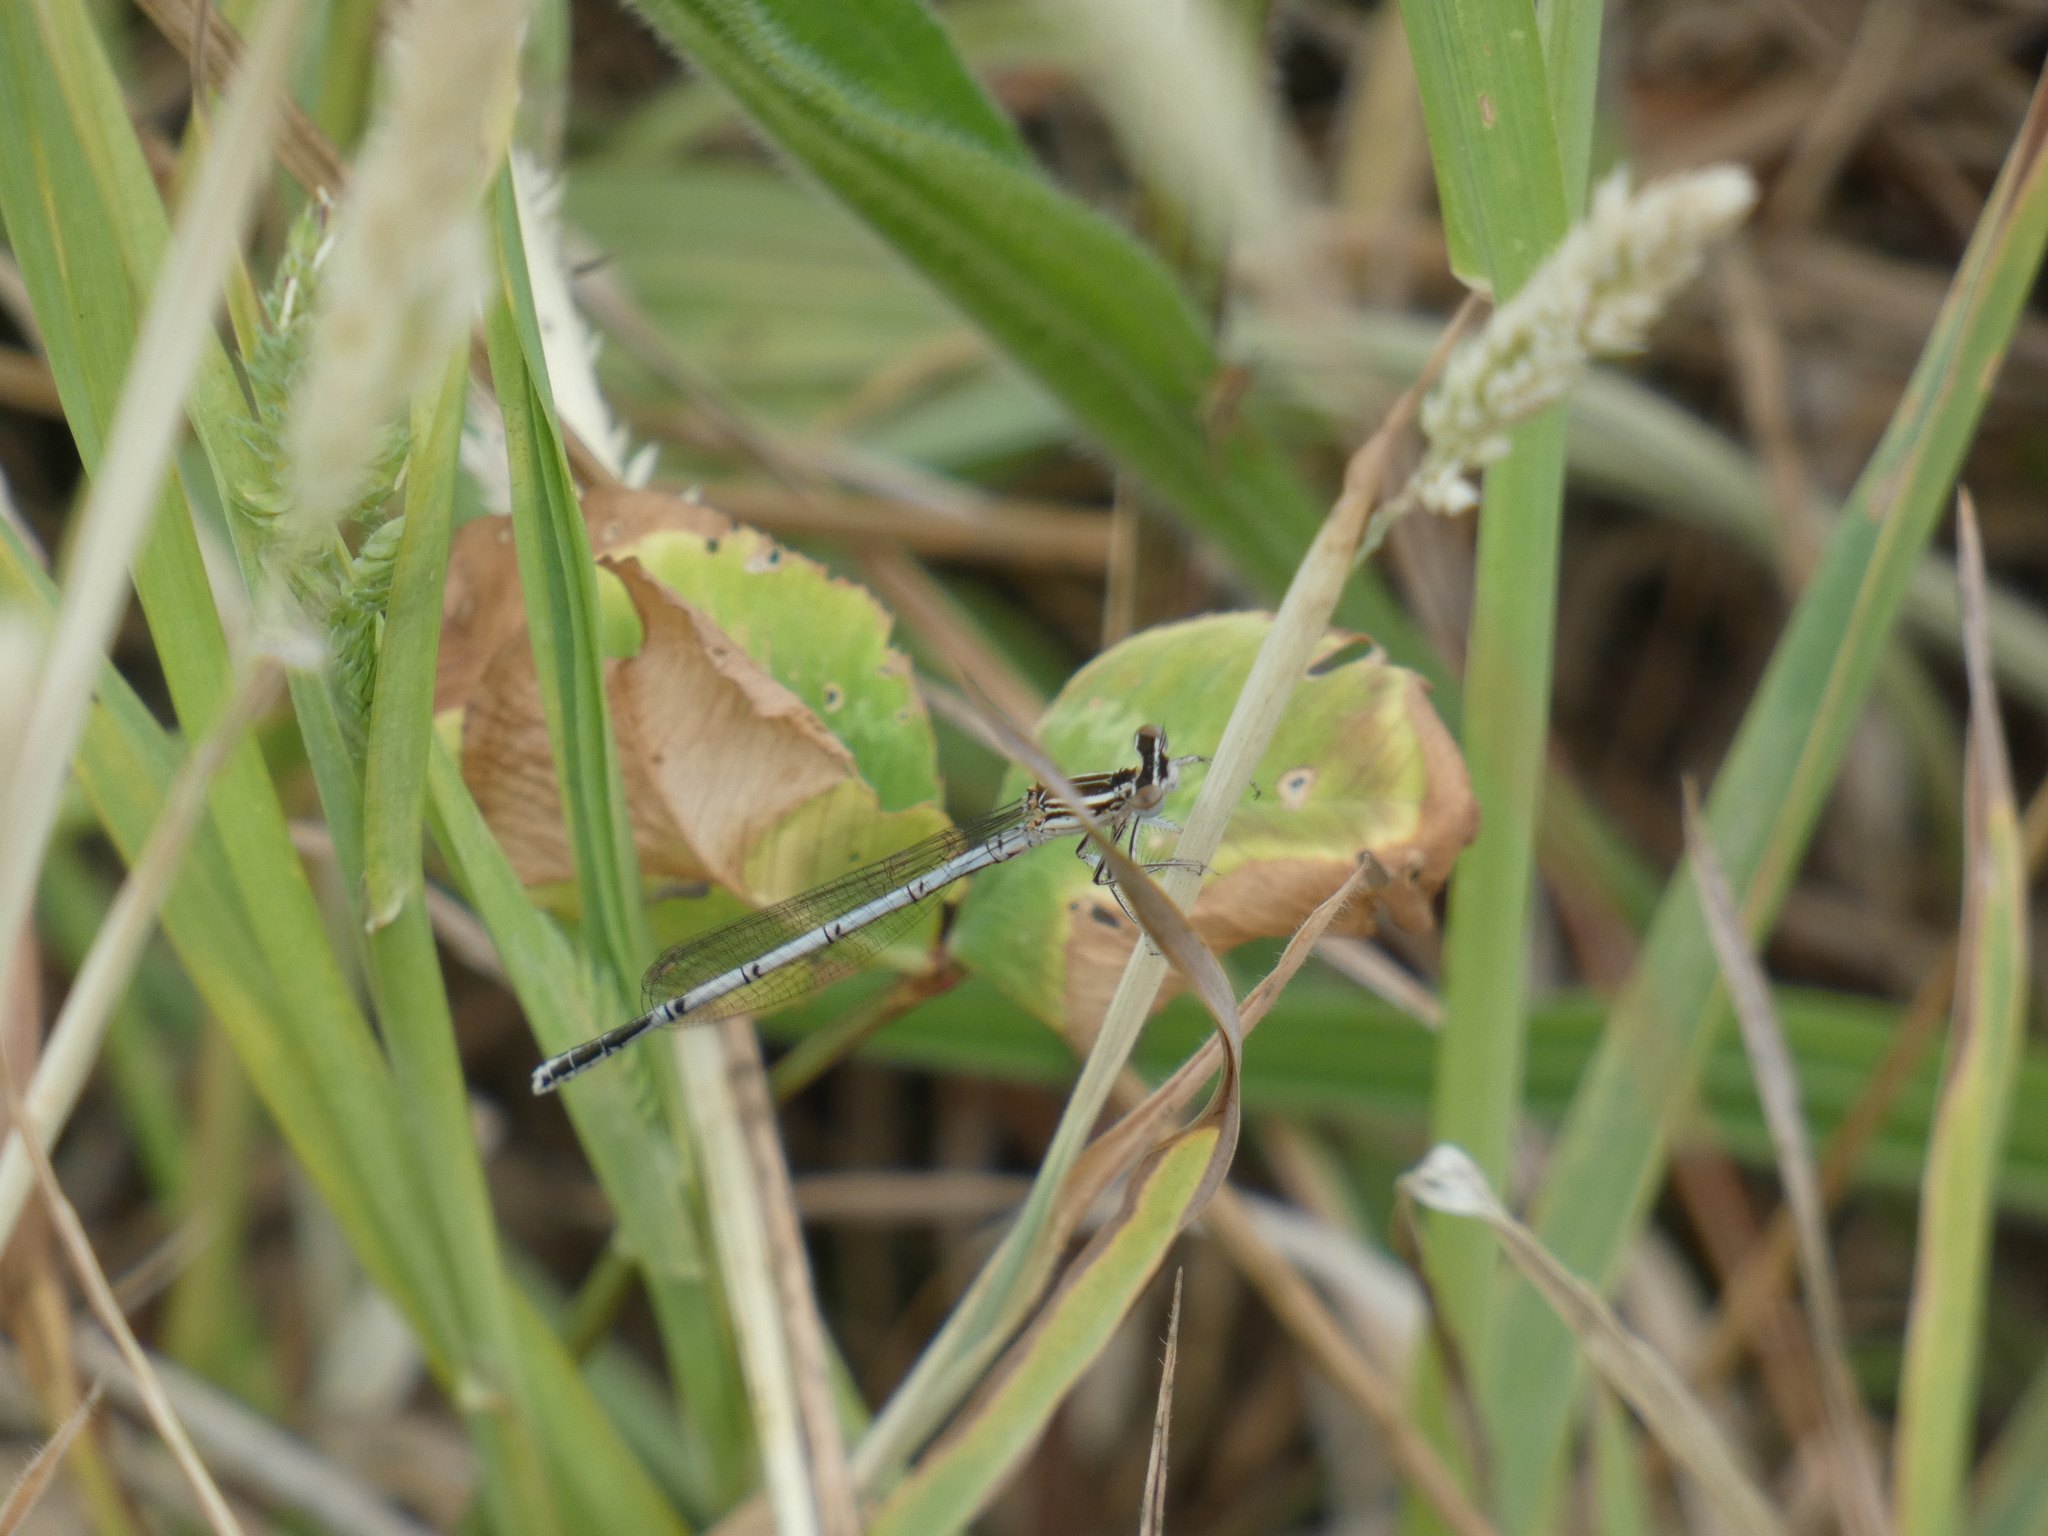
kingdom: Animalia
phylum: Arthropoda
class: Insecta
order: Odonata
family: Platycnemididae
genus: Platycnemis
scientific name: Platycnemis pennipes
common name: White-legged damselfly
